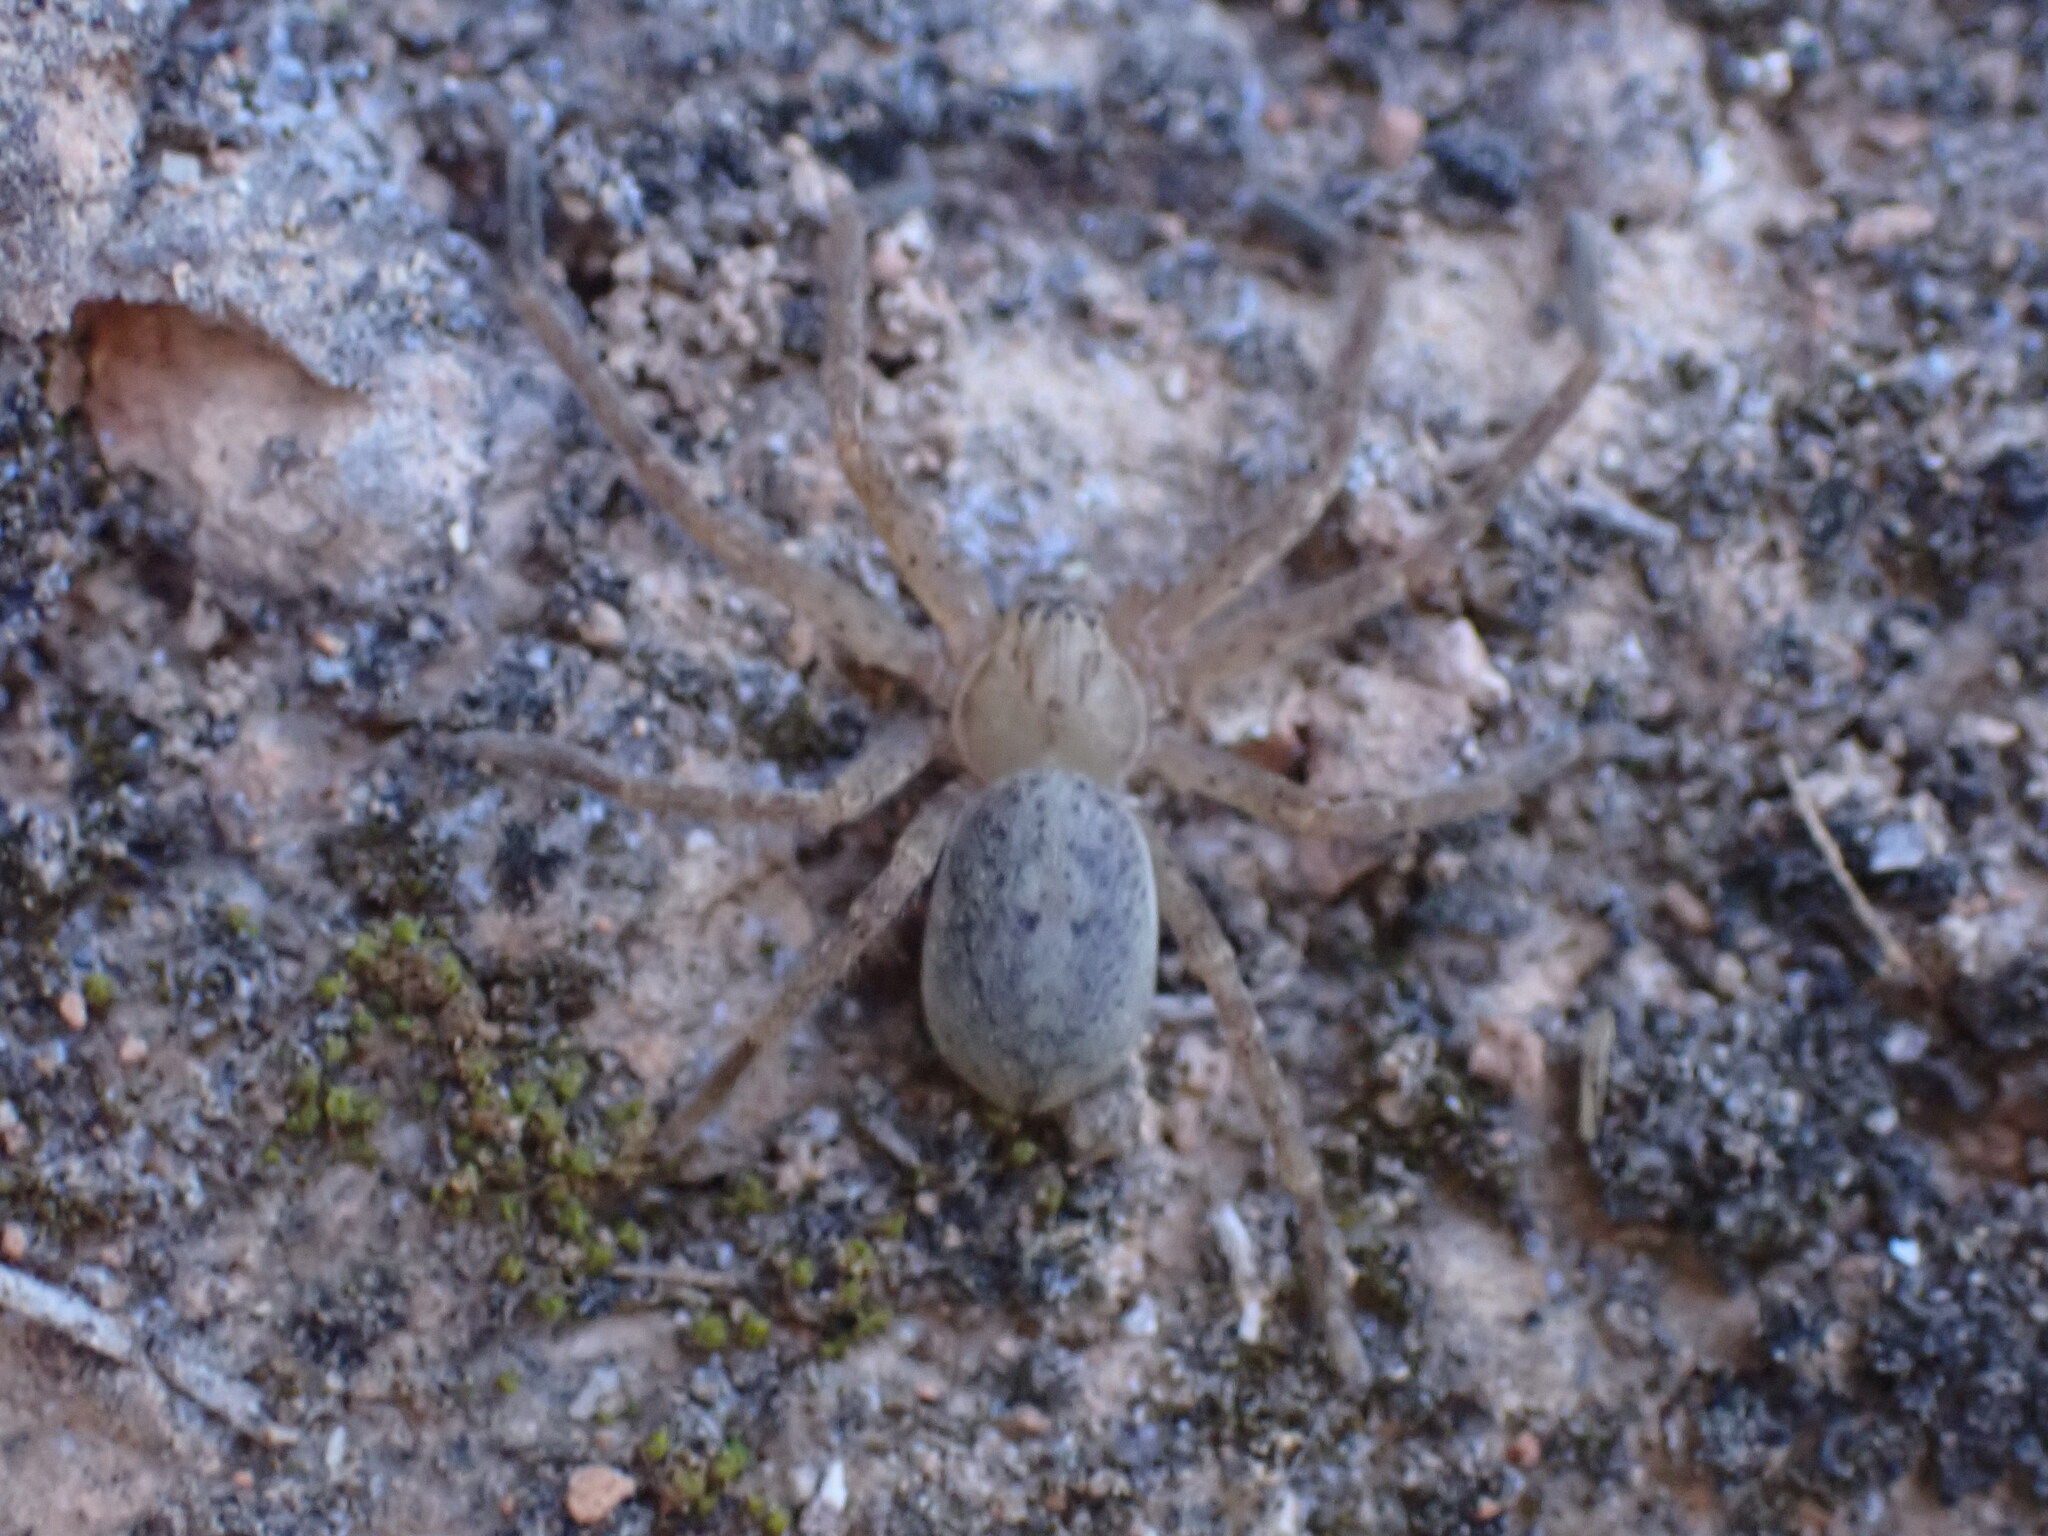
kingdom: Animalia
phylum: Arthropoda
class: Arachnida
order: Araneae
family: Sparassidae
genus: Olios
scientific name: Olios argelasius
